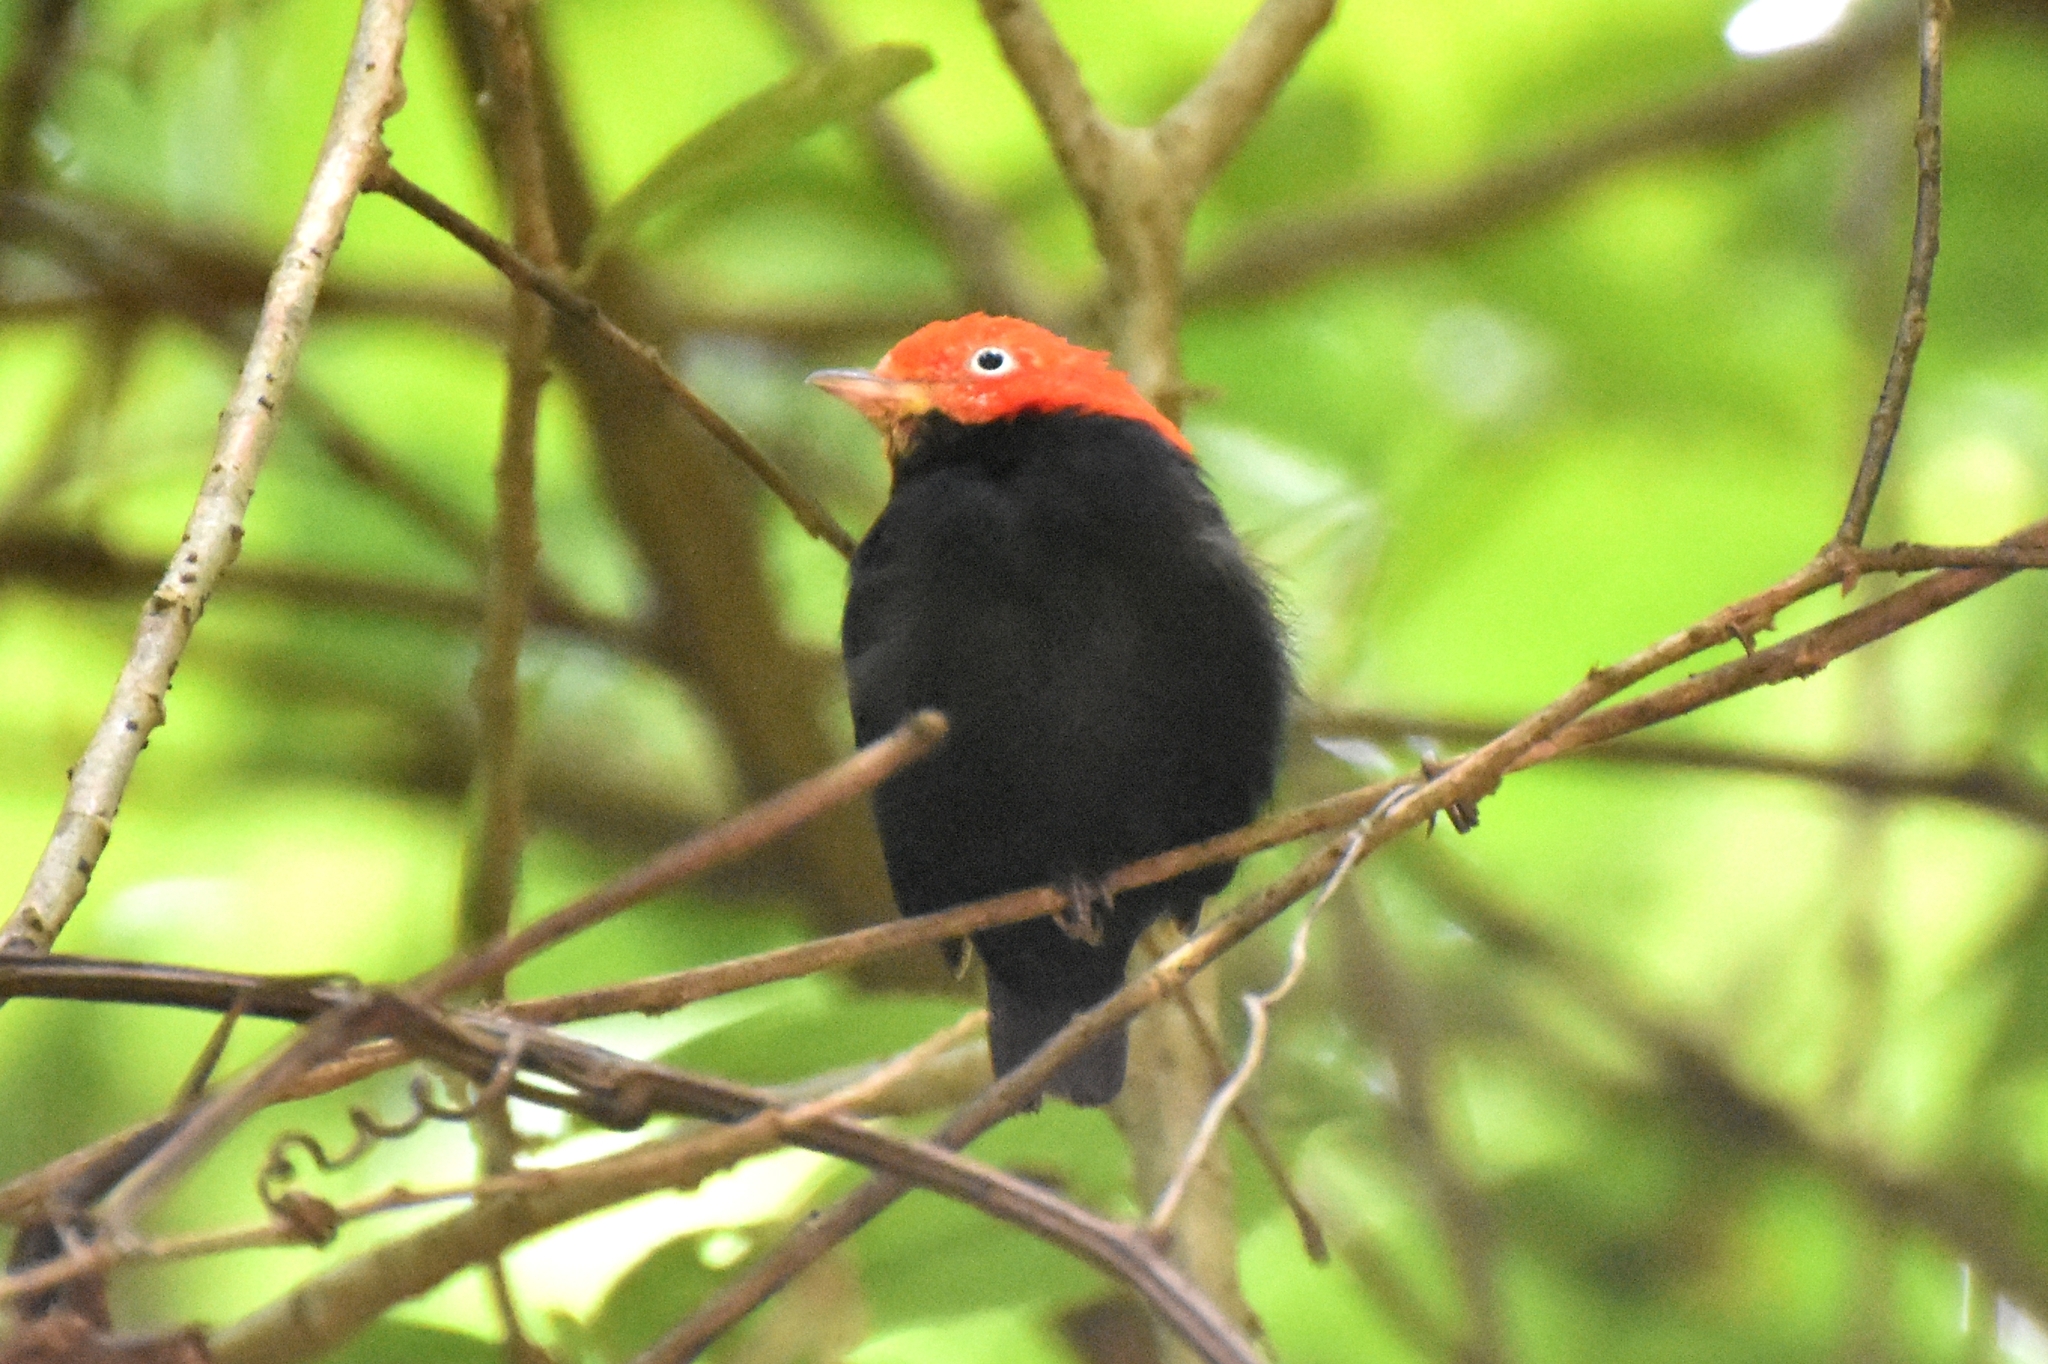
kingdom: Animalia
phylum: Chordata
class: Aves
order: Passeriformes
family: Pipridae
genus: Pipra
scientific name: Pipra mentalis
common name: Red-capped manakin
